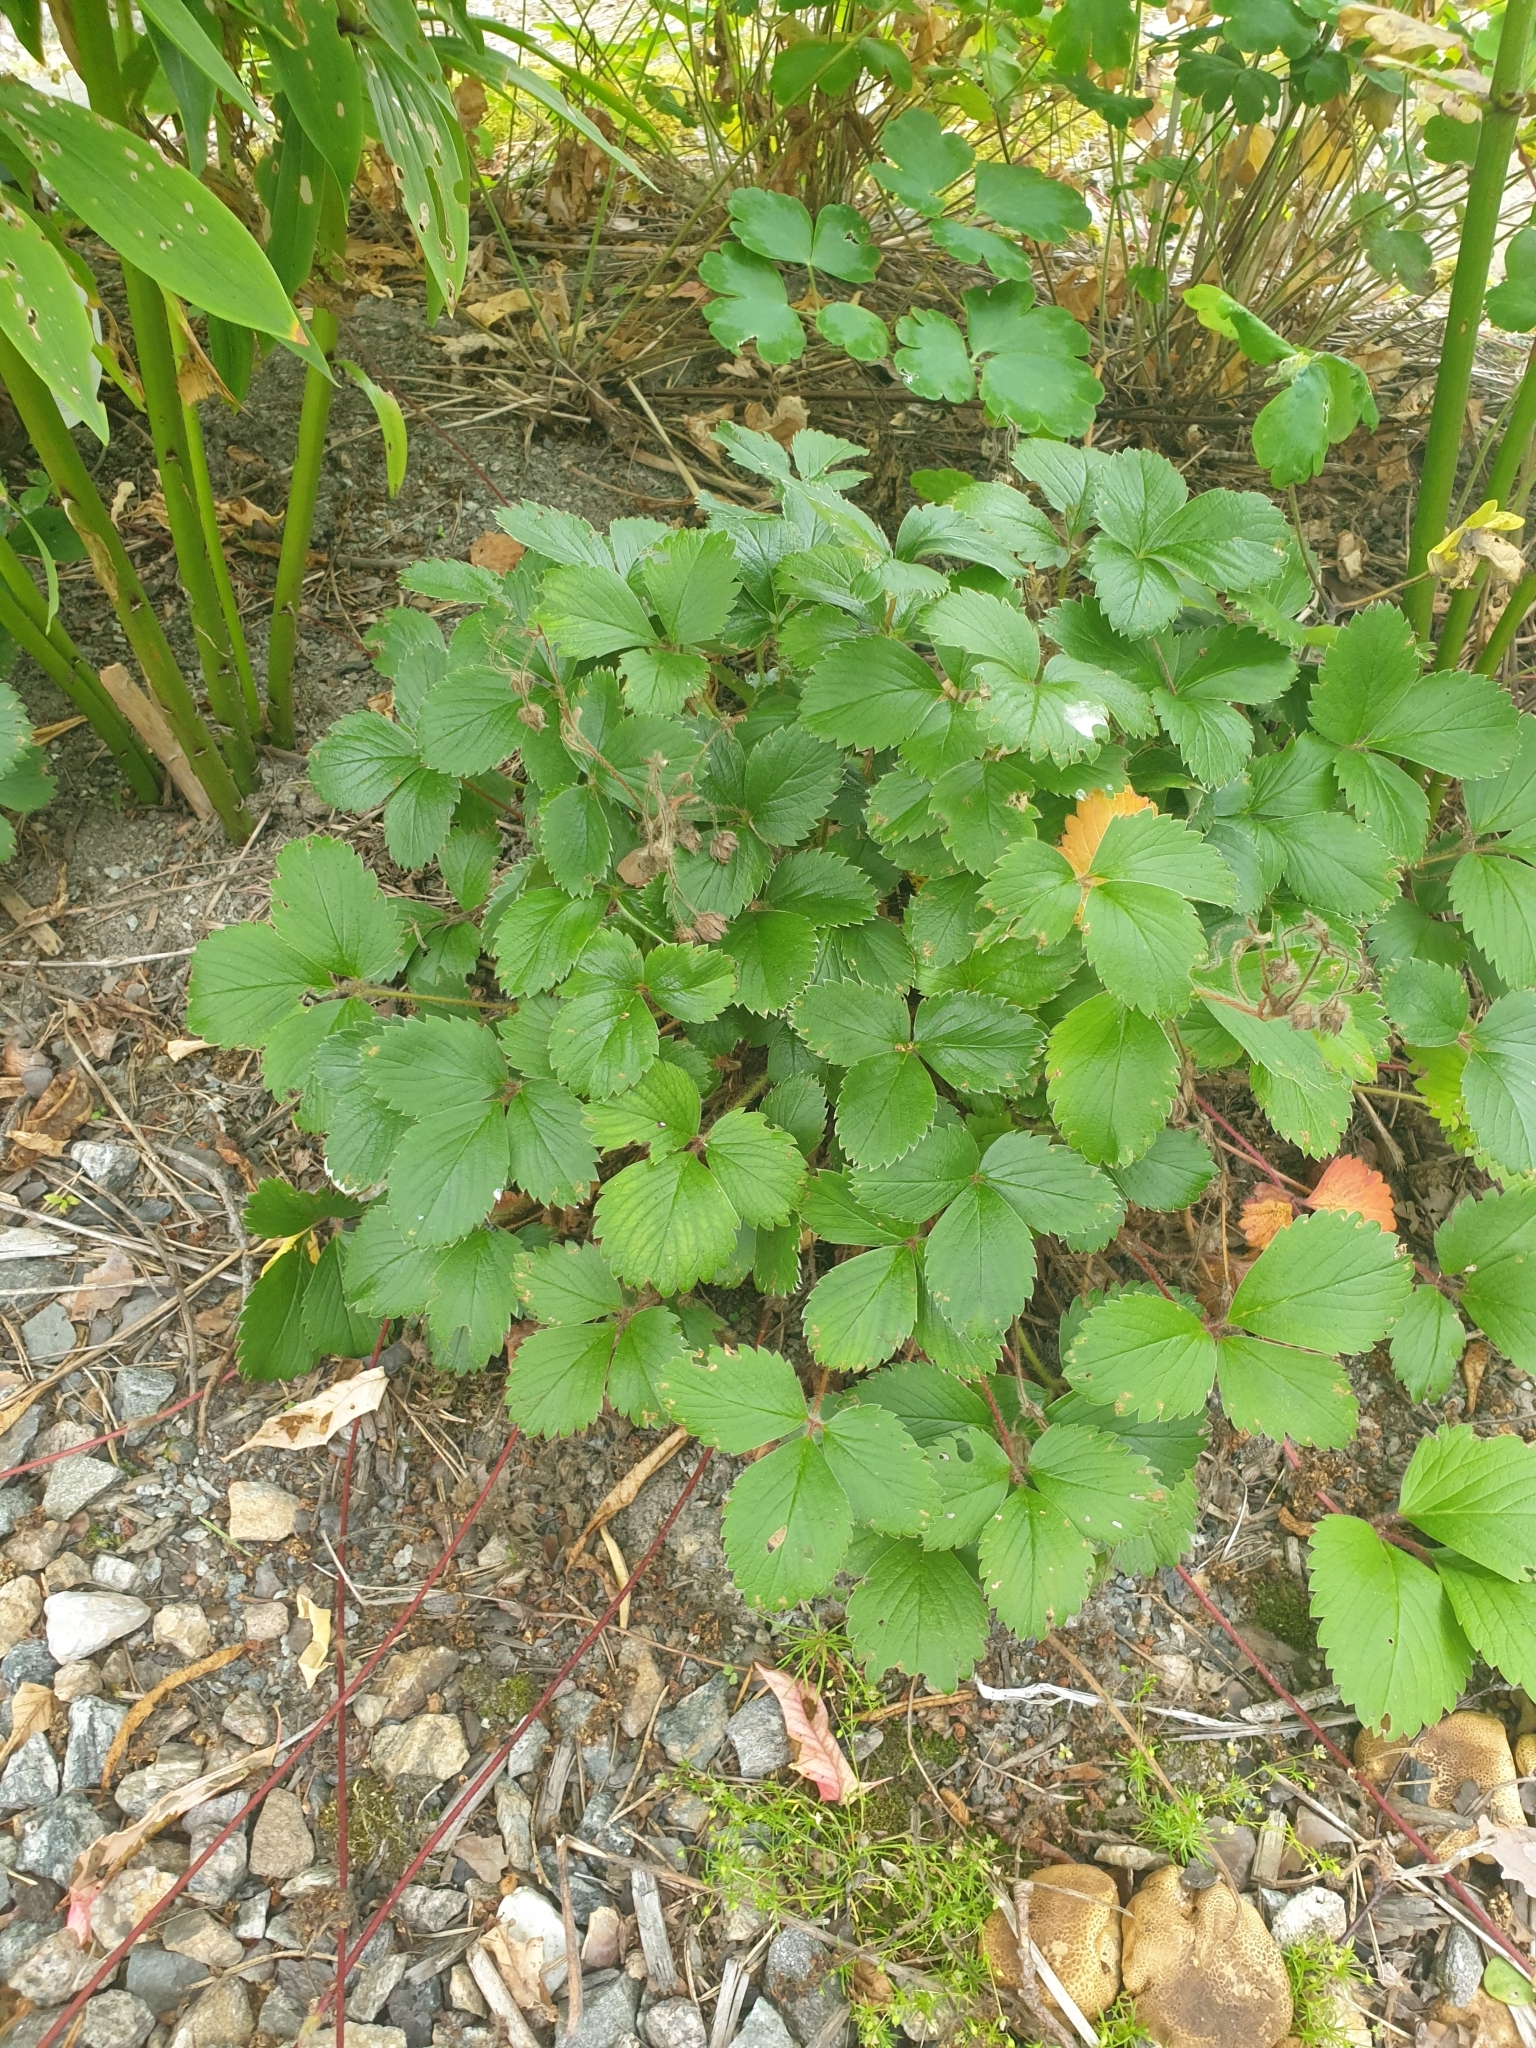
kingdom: Plantae
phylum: Tracheophyta
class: Magnoliopsida
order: Rosales
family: Rosaceae
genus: Fragaria
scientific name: Fragaria ananassa
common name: Garden strawberry
